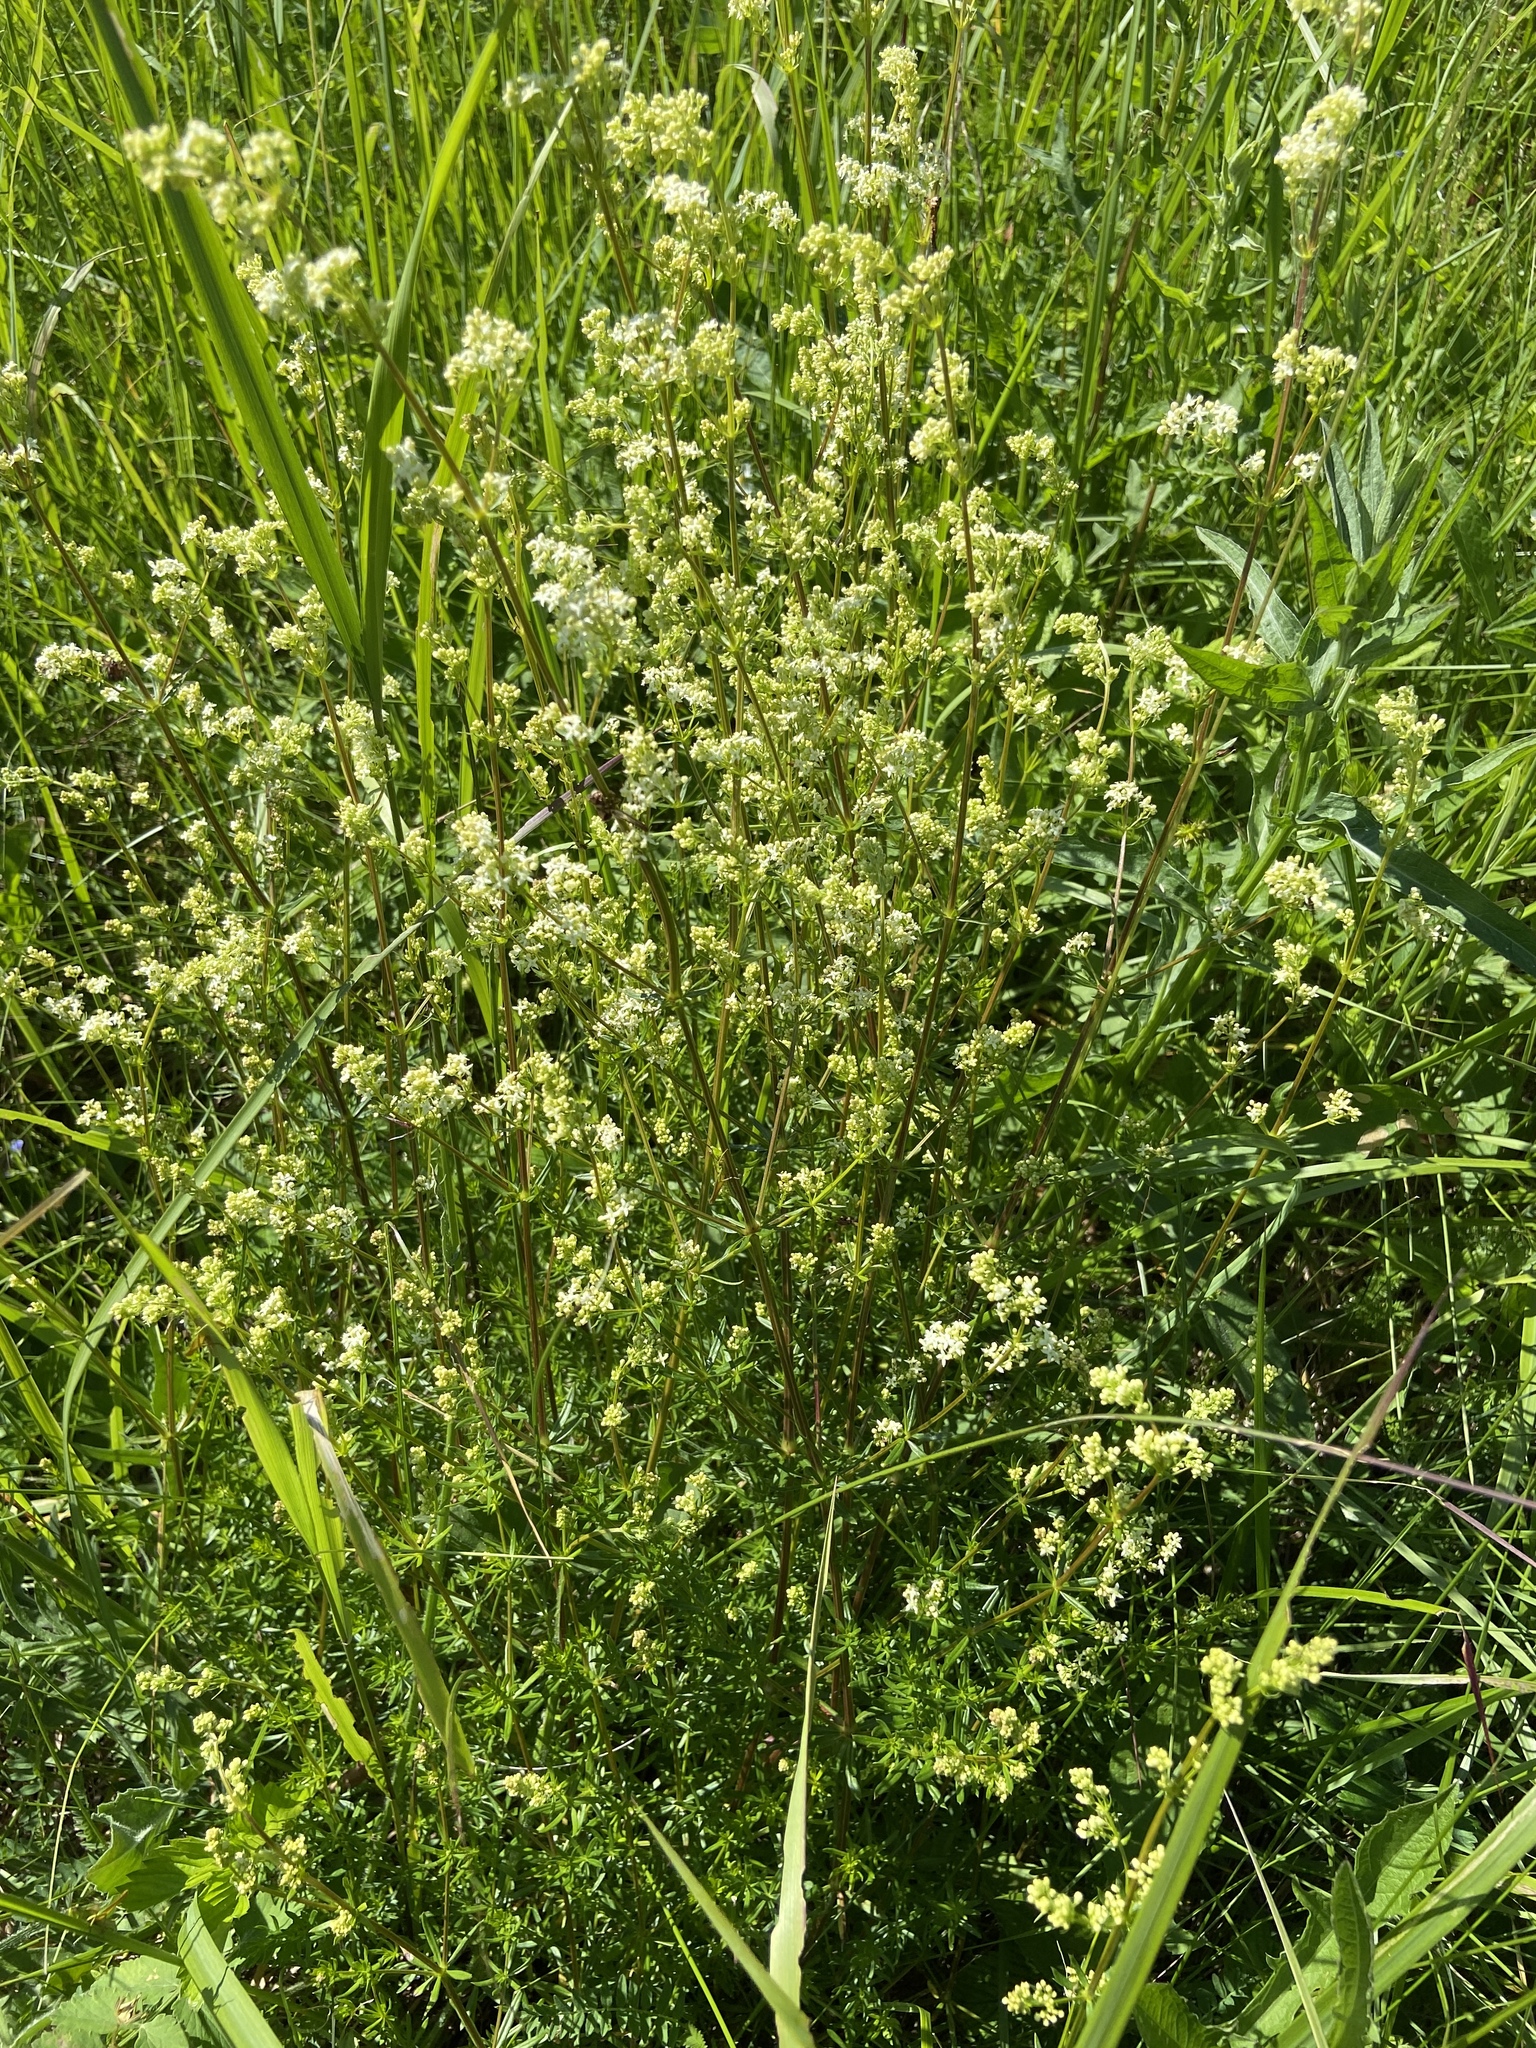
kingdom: Plantae
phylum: Tracheophyta
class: Magnoliopsida
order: Gentianales
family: Rubiaceae
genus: Galium
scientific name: Galium mollugo
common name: Hedge bedstraw
